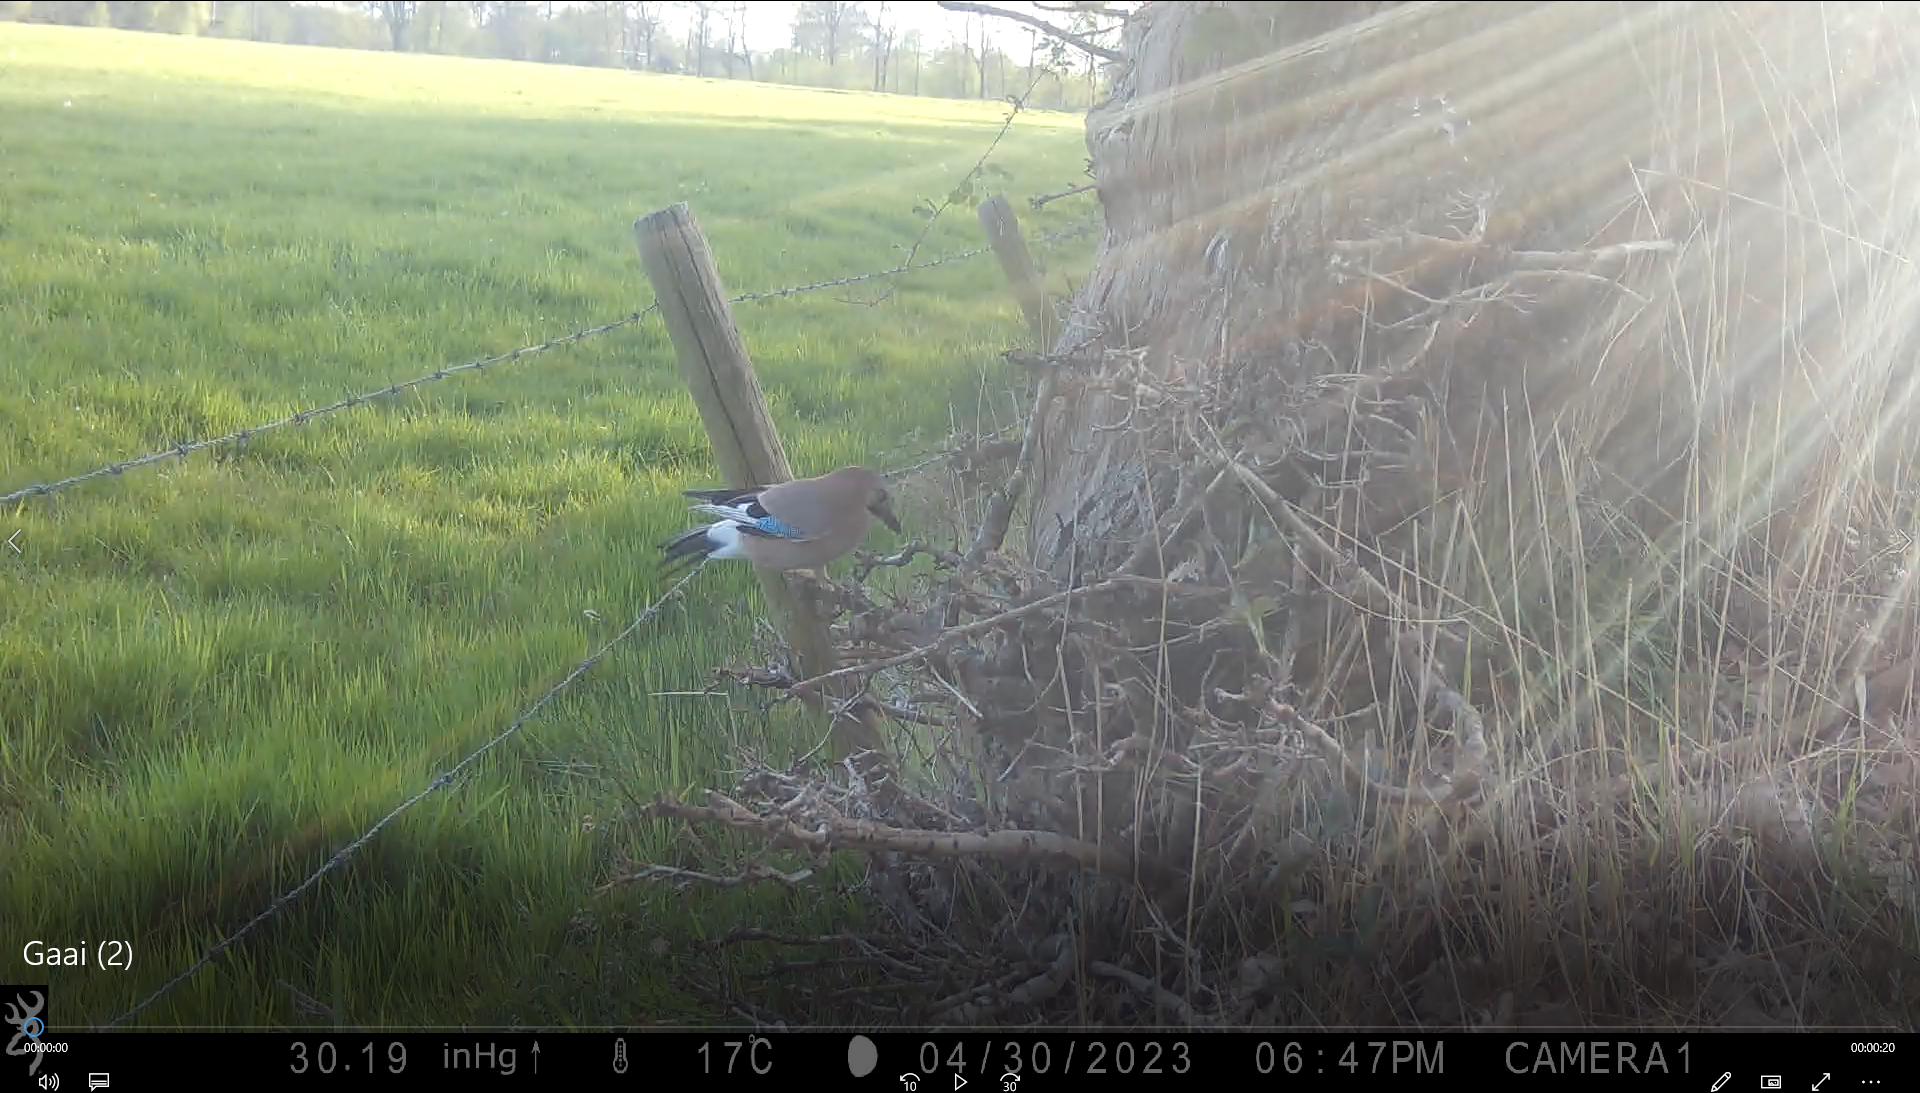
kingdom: Animalia
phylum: Chordata
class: Aves
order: Passeriformes
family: Corvidae
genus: Garrulus
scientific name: Garrulus glandarius
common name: Eurasian jay
